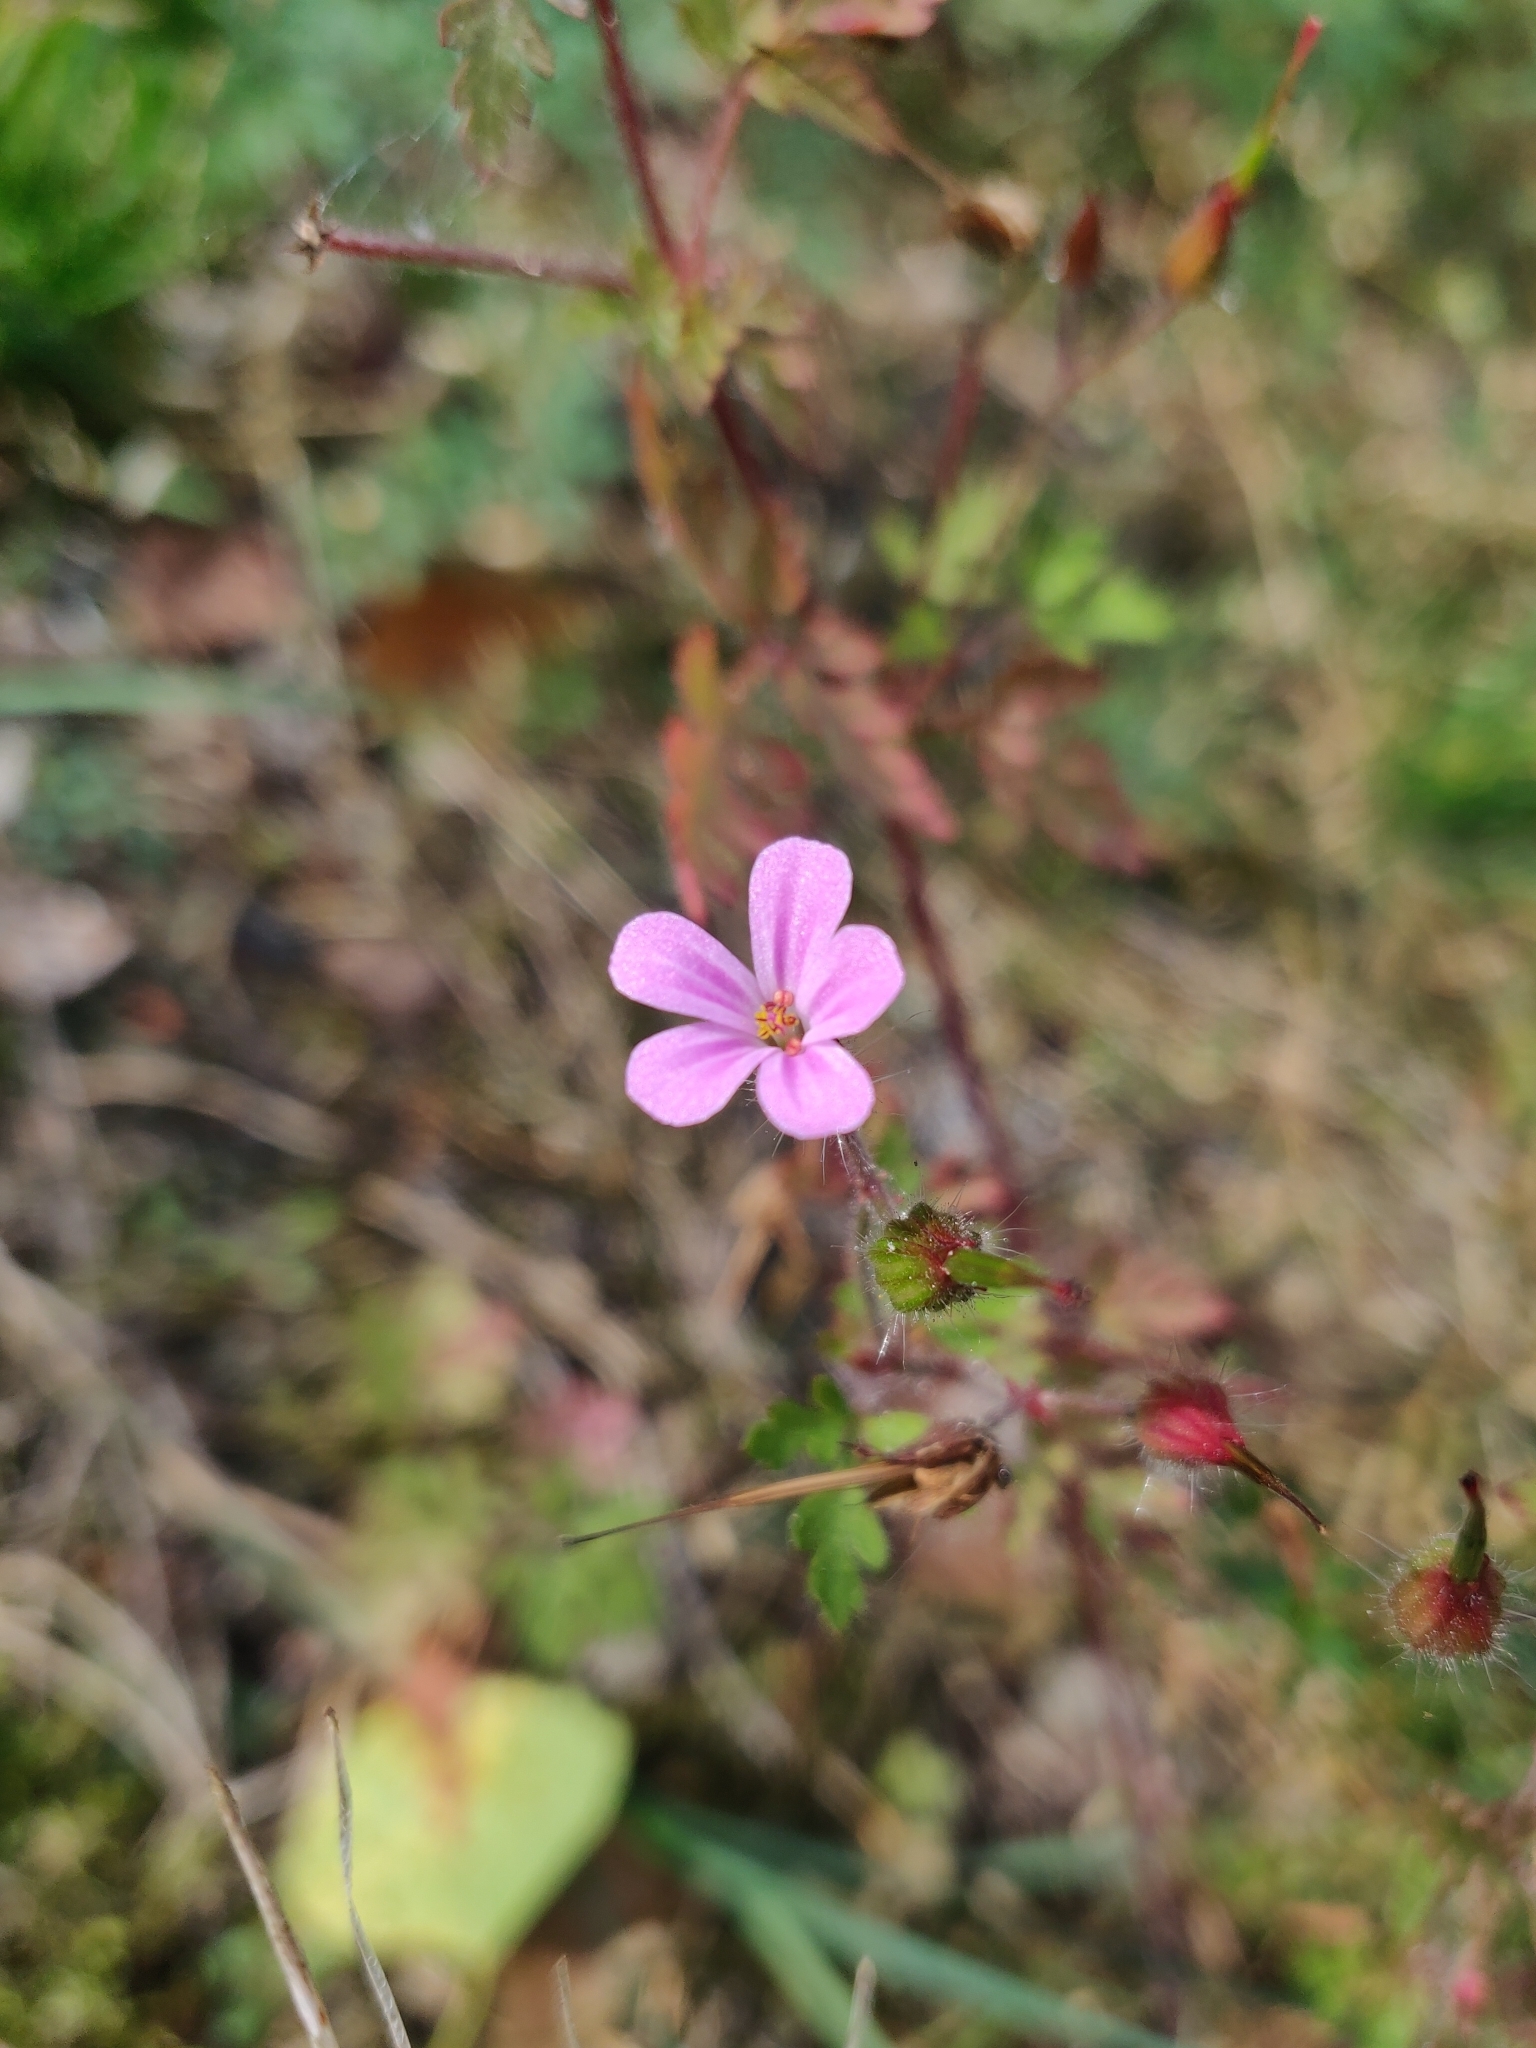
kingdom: Plantae
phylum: Tracheophyta
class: Magnoliopsida
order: Geraniales
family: Geraniaceae
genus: Geranium
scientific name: Geranium robertianum
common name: Herb-robert
